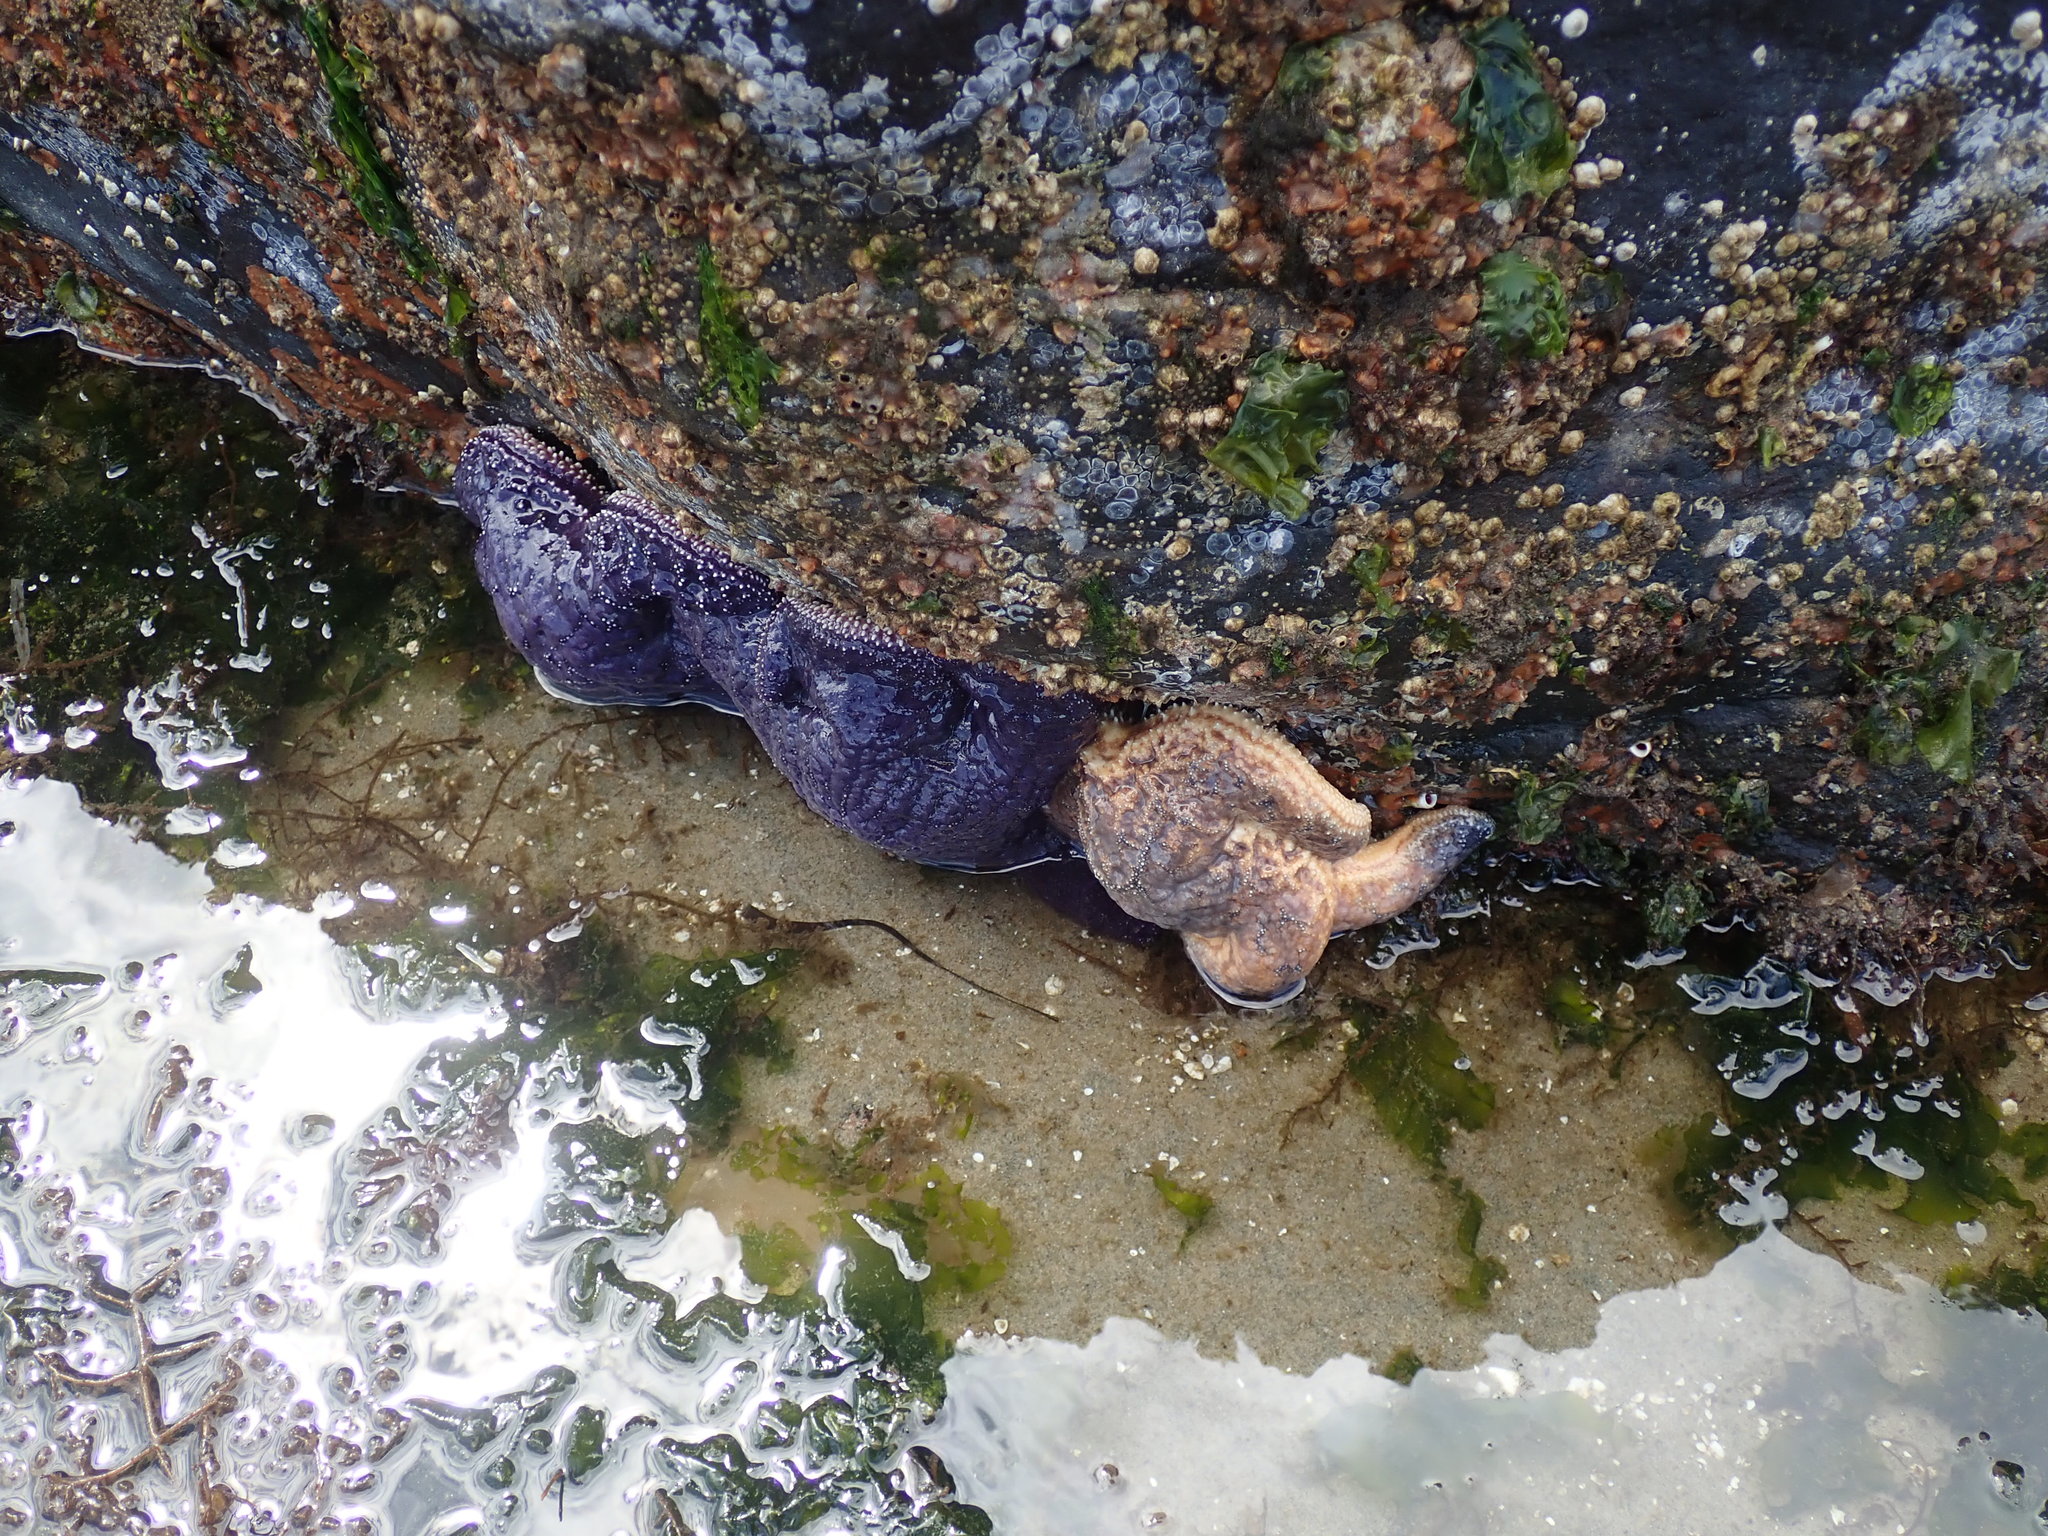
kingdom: Animalia
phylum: Echinodermata
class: Asteroidea
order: Forcipulatida
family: Asteriidae
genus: Pisaster
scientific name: Pisaster ochraceus
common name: Ochre stars
